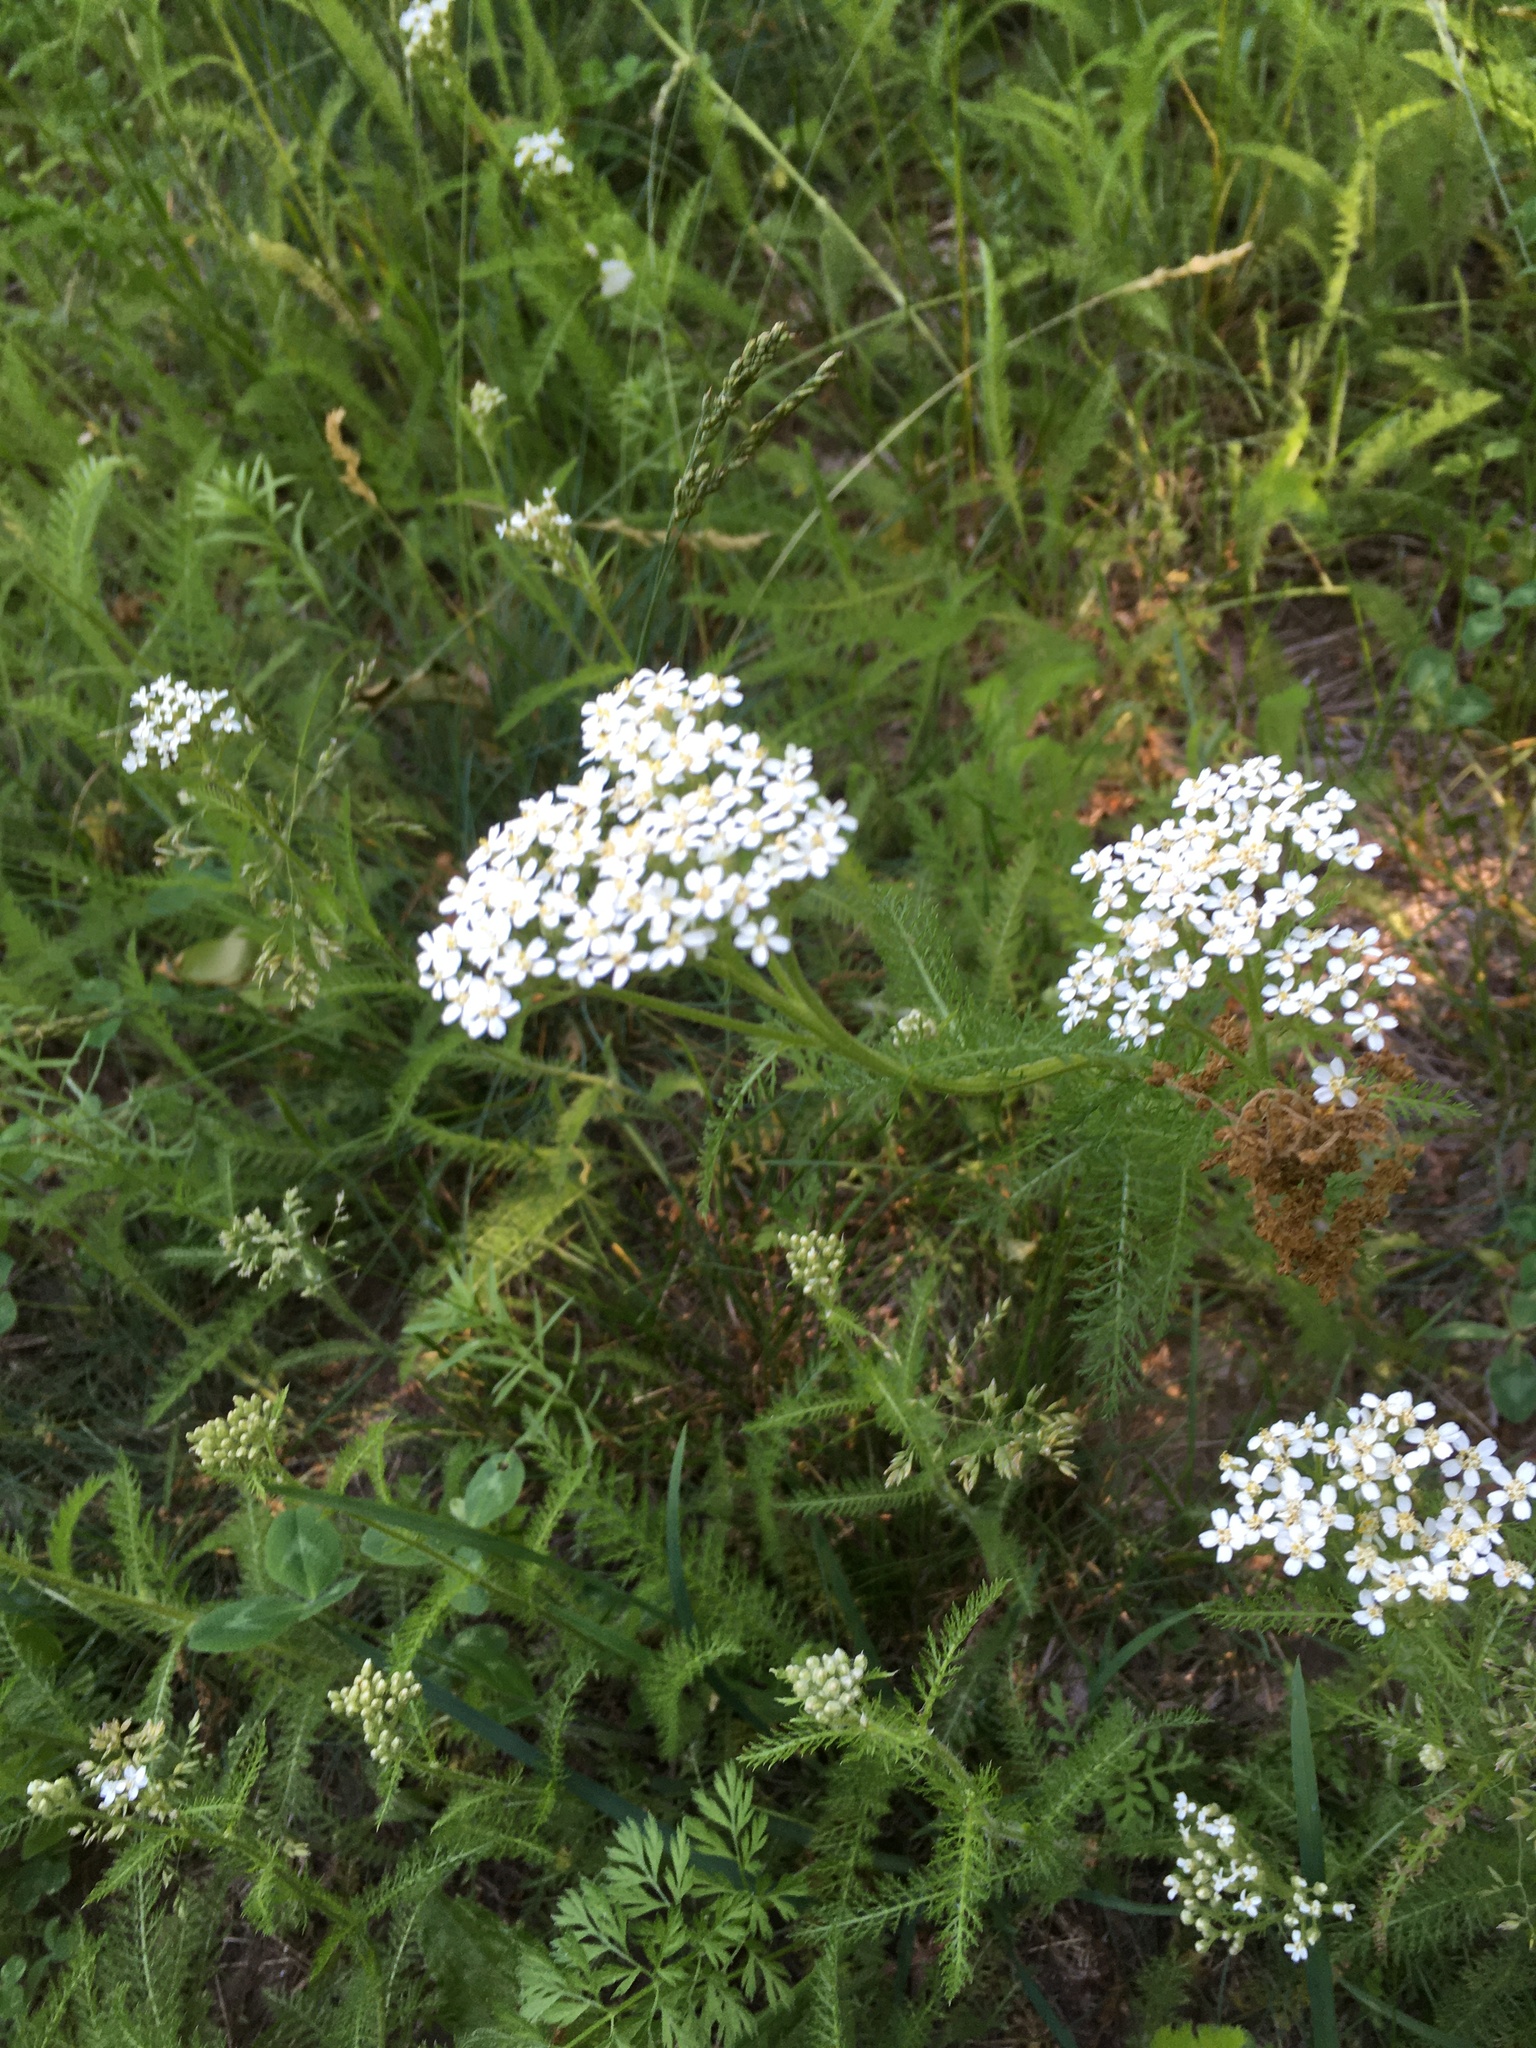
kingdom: Plantae
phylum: Tracheophyta
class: Magnoliopsida
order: Asterales
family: Asteraceae
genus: Achillea
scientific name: Achillea millefolium
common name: Yarrow
